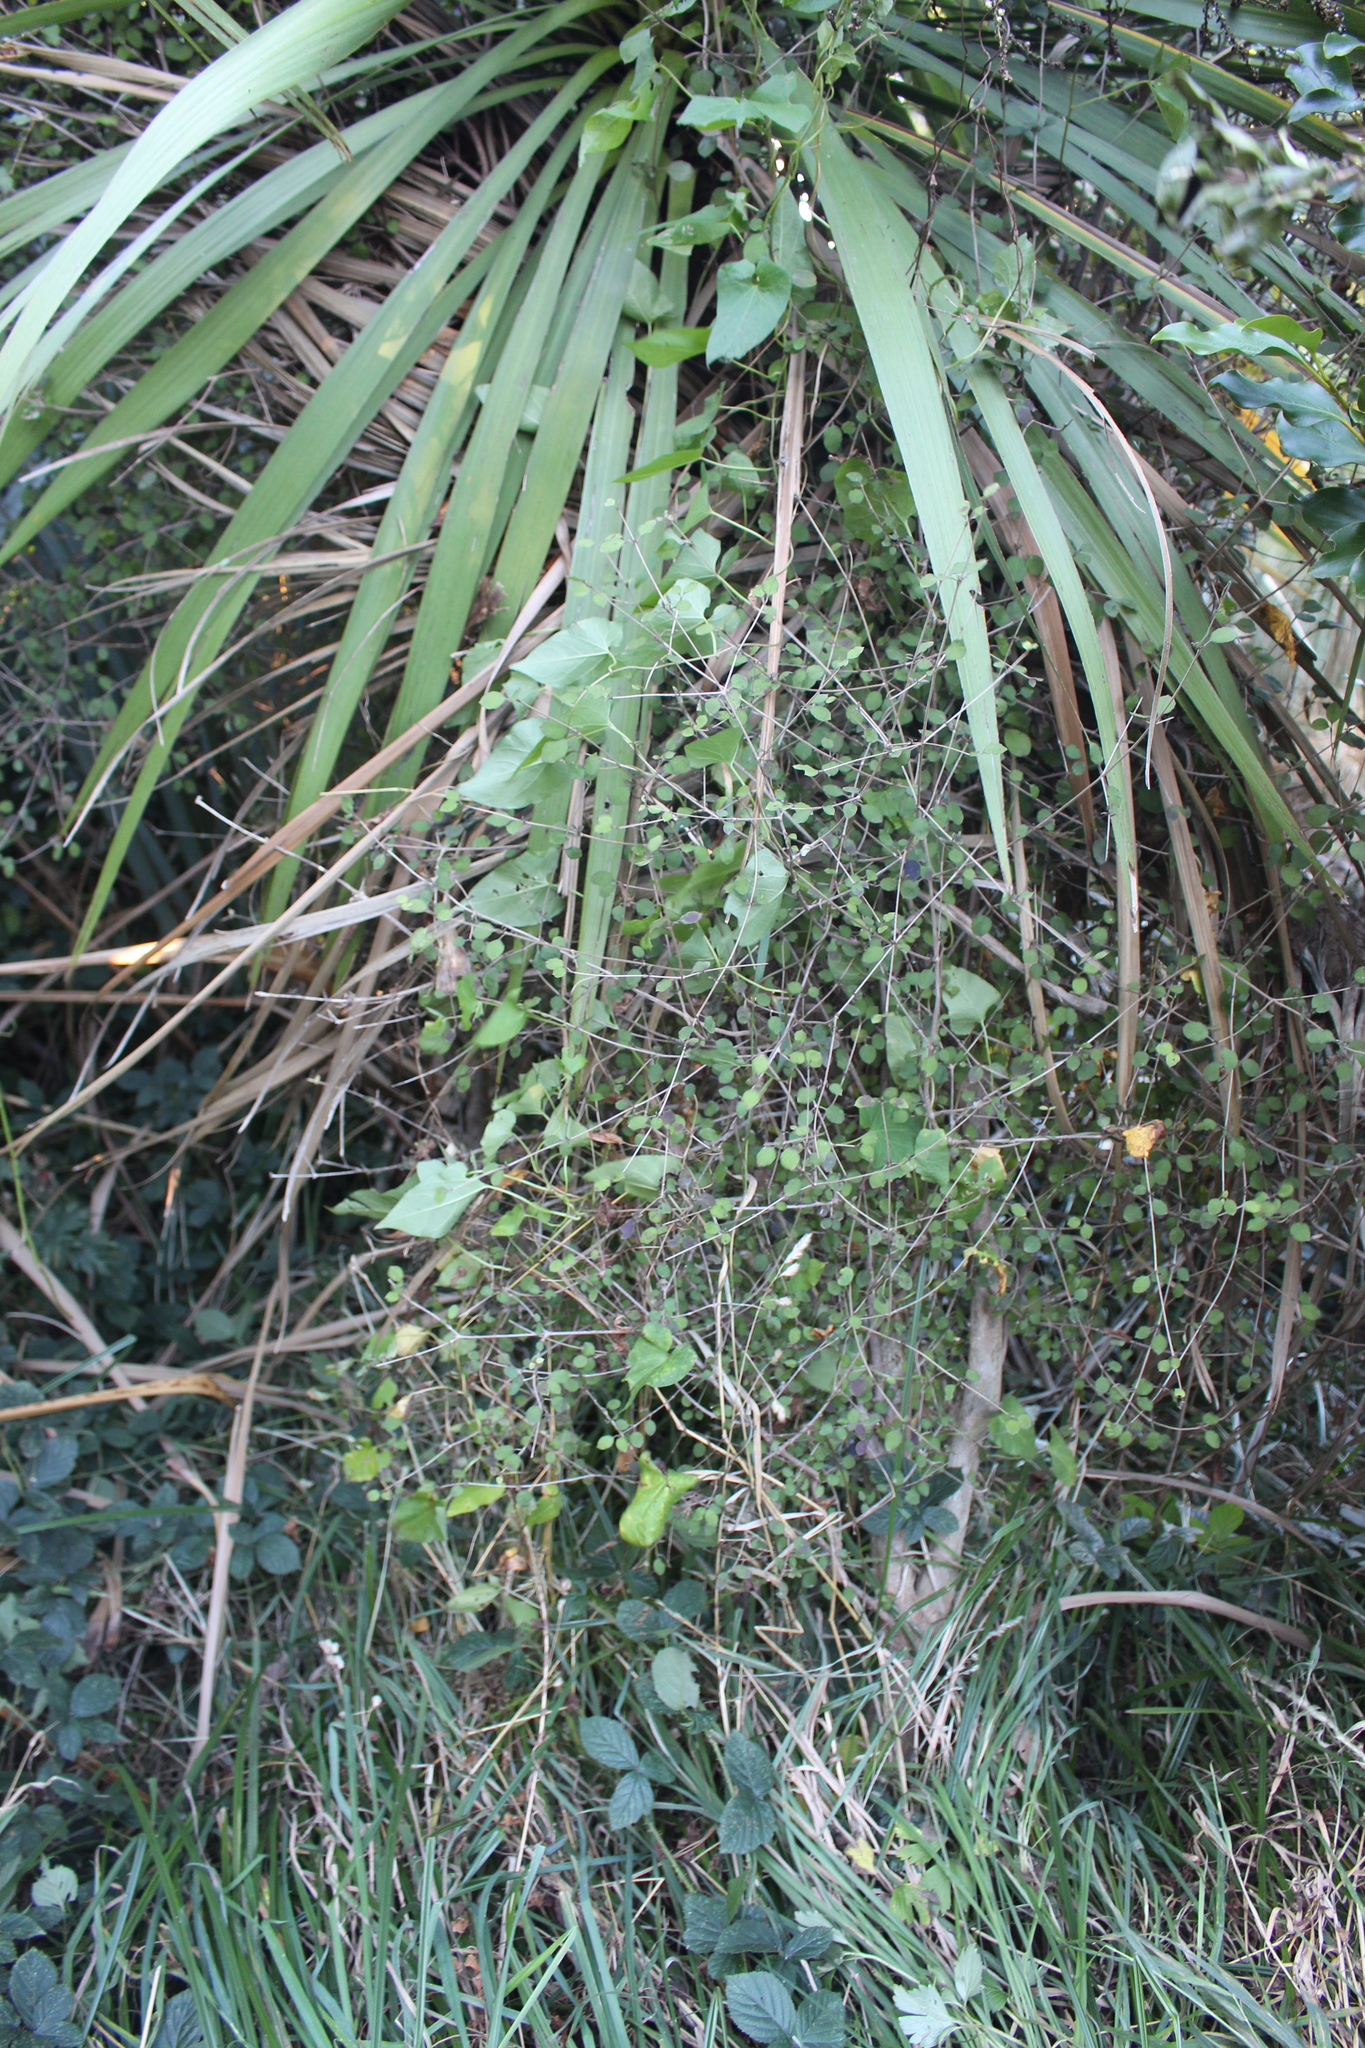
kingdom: Plantae
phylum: Tracheophyta
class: Magnoliopsida
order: Gentianales
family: Rubiaceae
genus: Coprosma
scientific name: Coprosma rotundifolia
